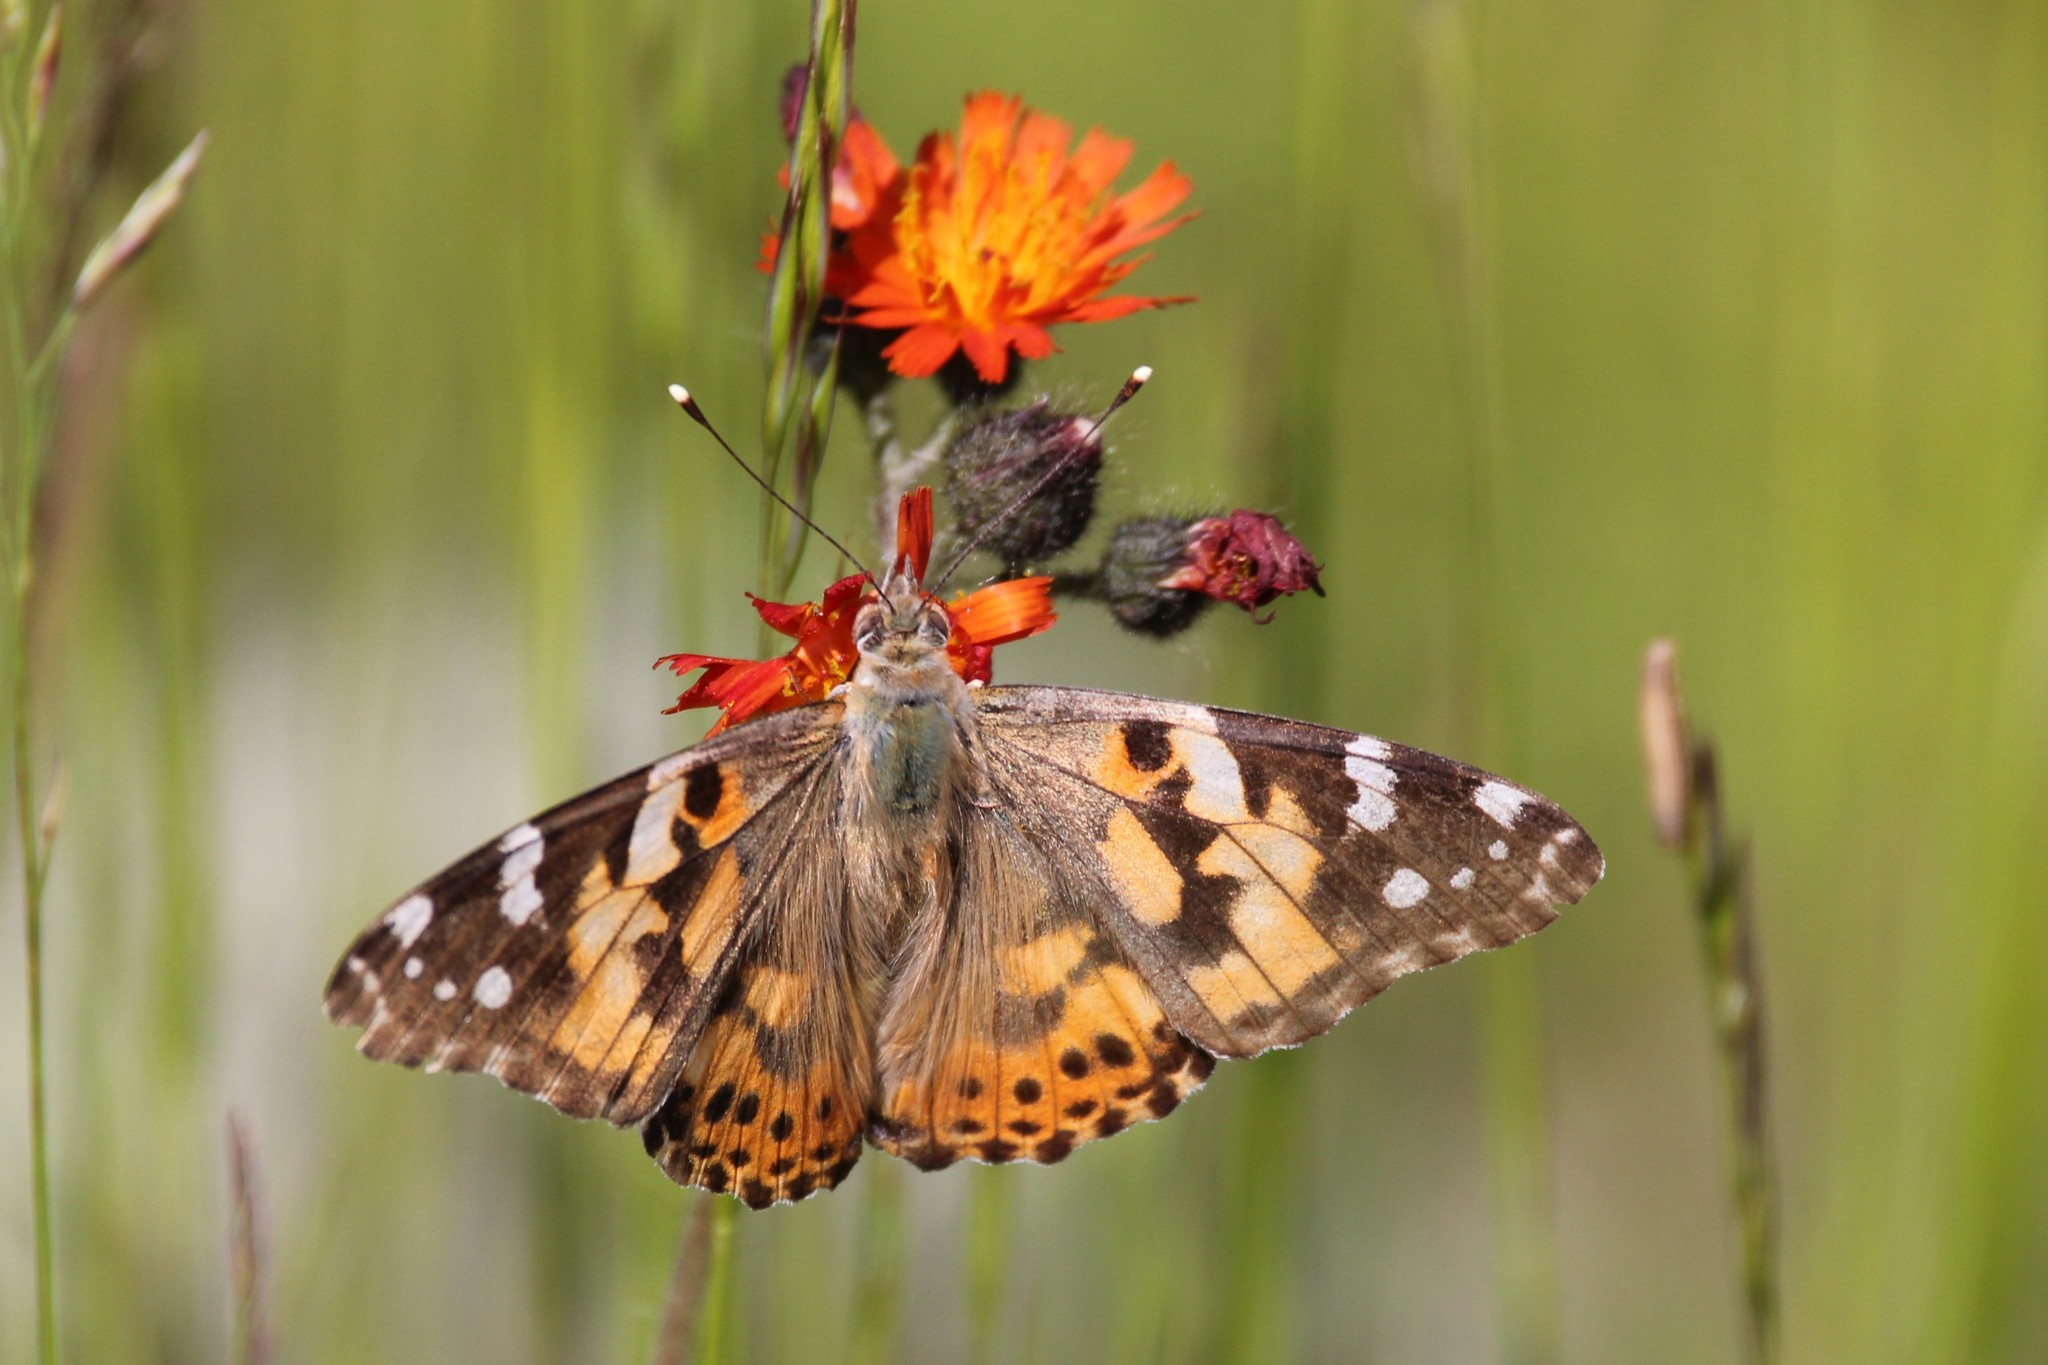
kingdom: Animalia
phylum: Arthropoda
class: Insecta
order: Lepidoptera
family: Nymphalidae
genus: Vanessa
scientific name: Vanessa cardui
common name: Painted lady
